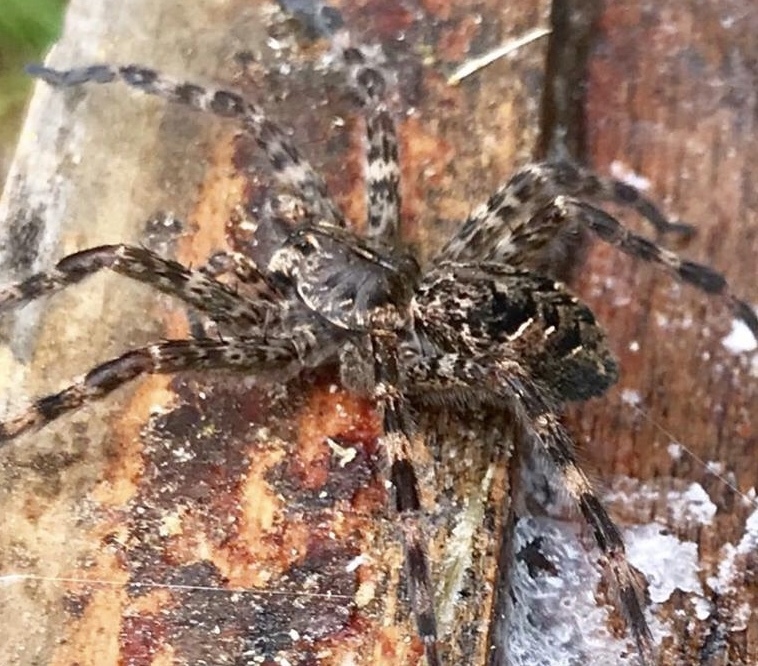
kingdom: Animalia
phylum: Arthropoda
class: Arachnida
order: Araneae
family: Pisauridae
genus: Dolomedes
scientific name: Dolomedes tenebrosus
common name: Dark fishing spider
